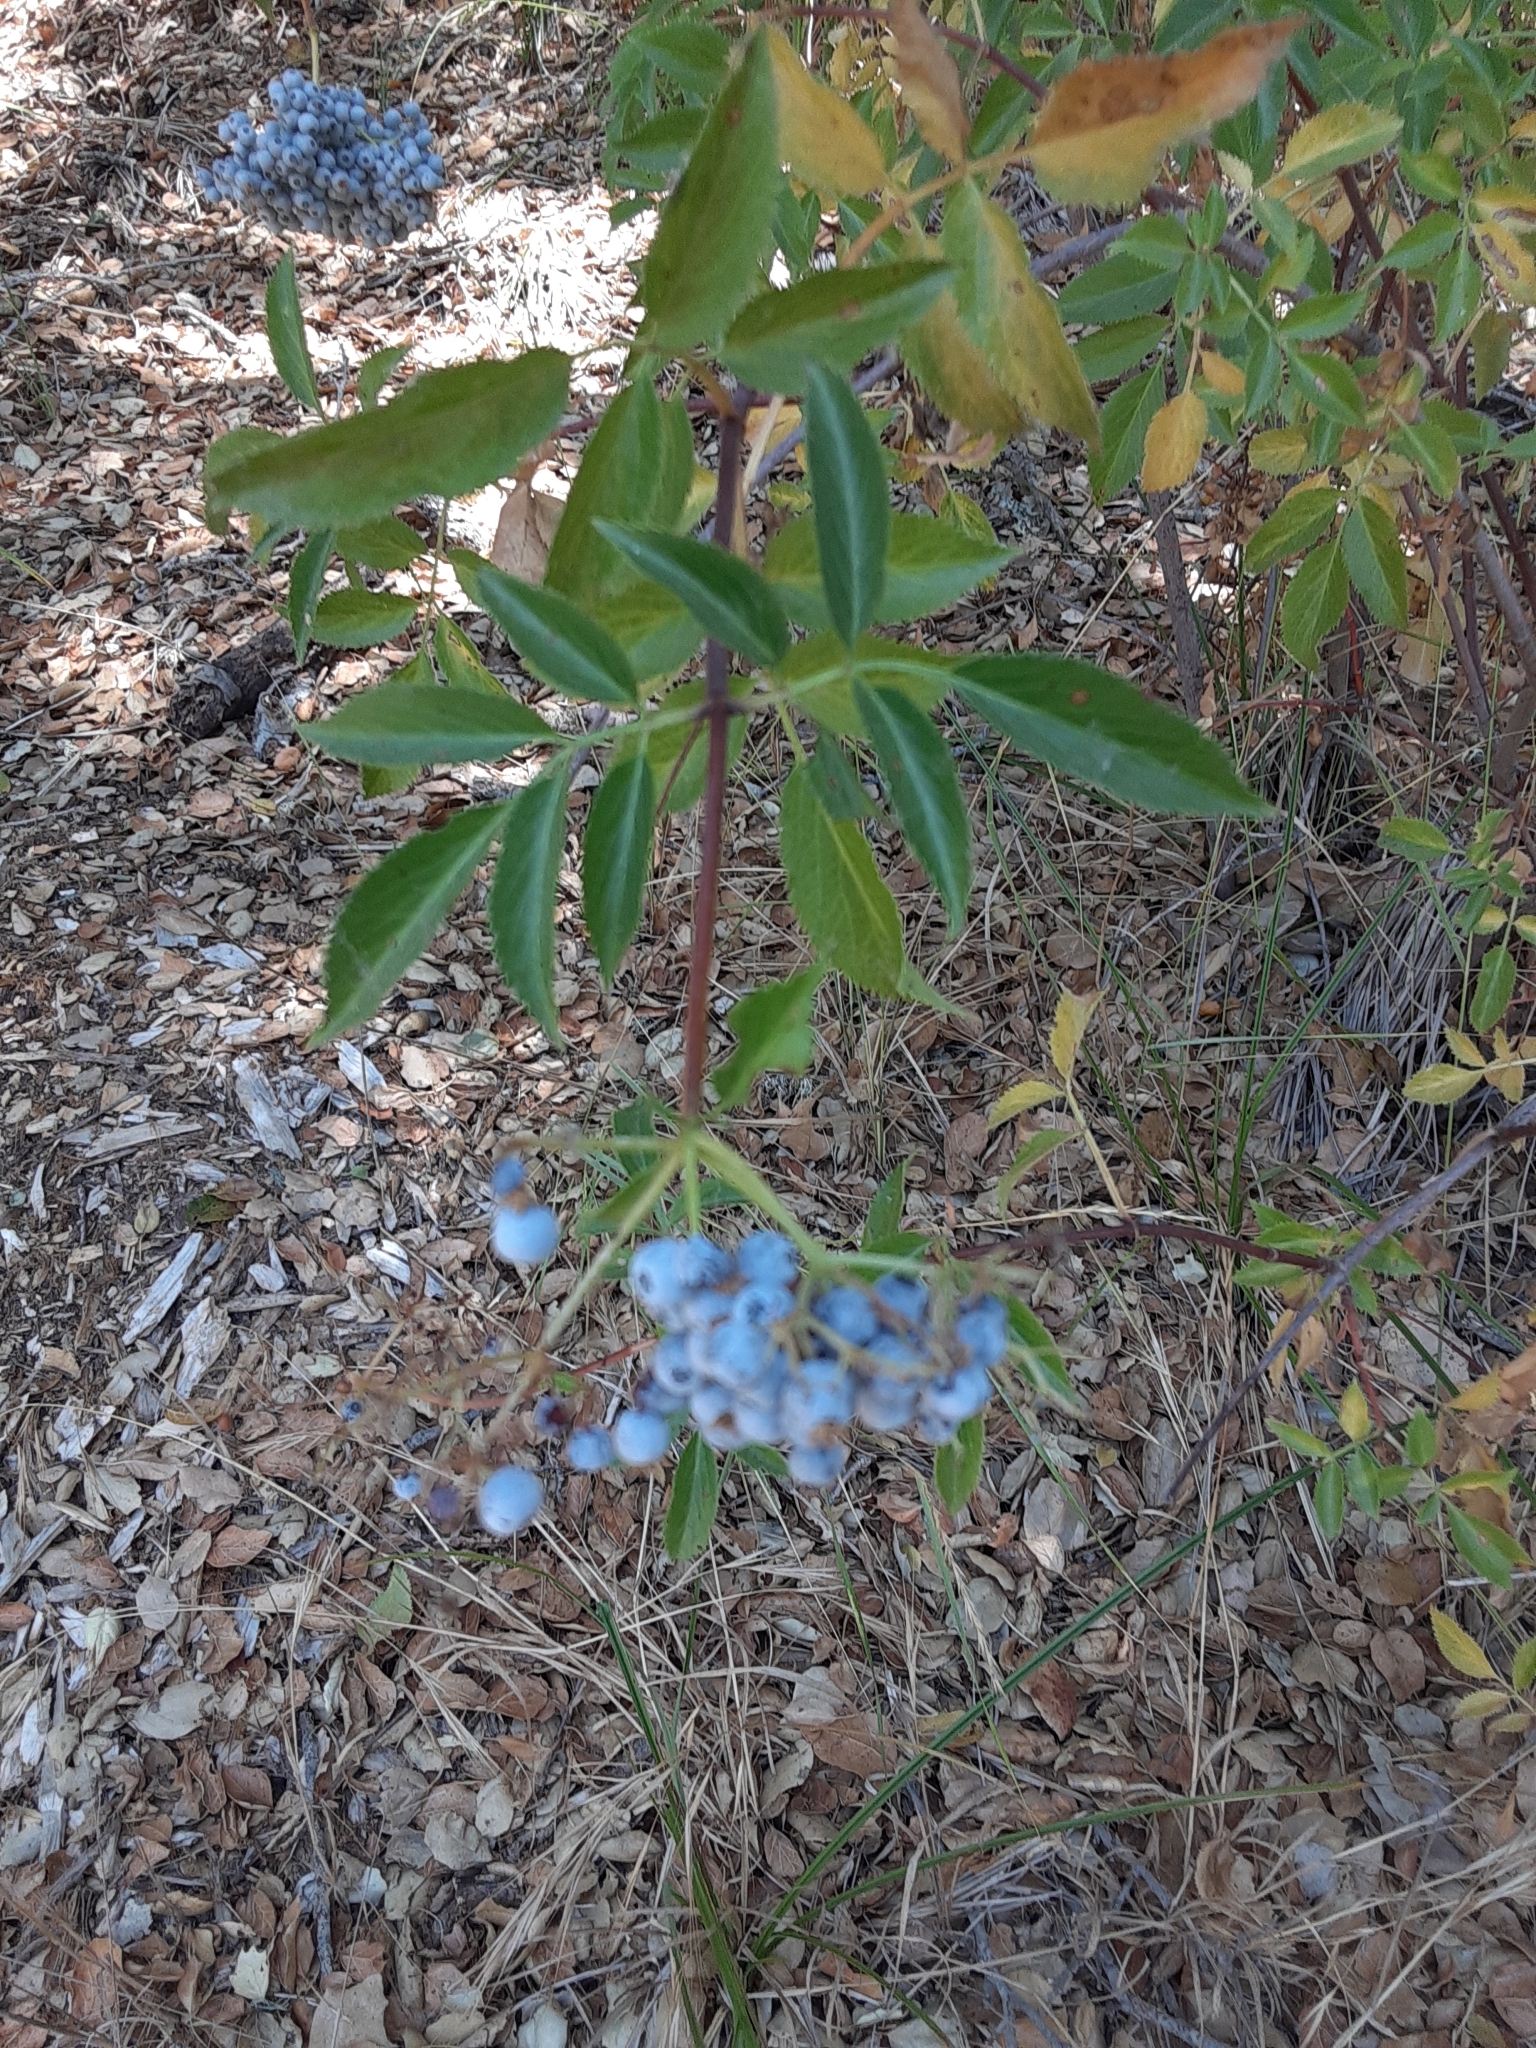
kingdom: Plantae
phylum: Tracheophyta
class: Magnoliopsida
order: Dipsacales
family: Viburnaceae
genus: Sambucus
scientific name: Sambucus cerulea
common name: Blue elder
